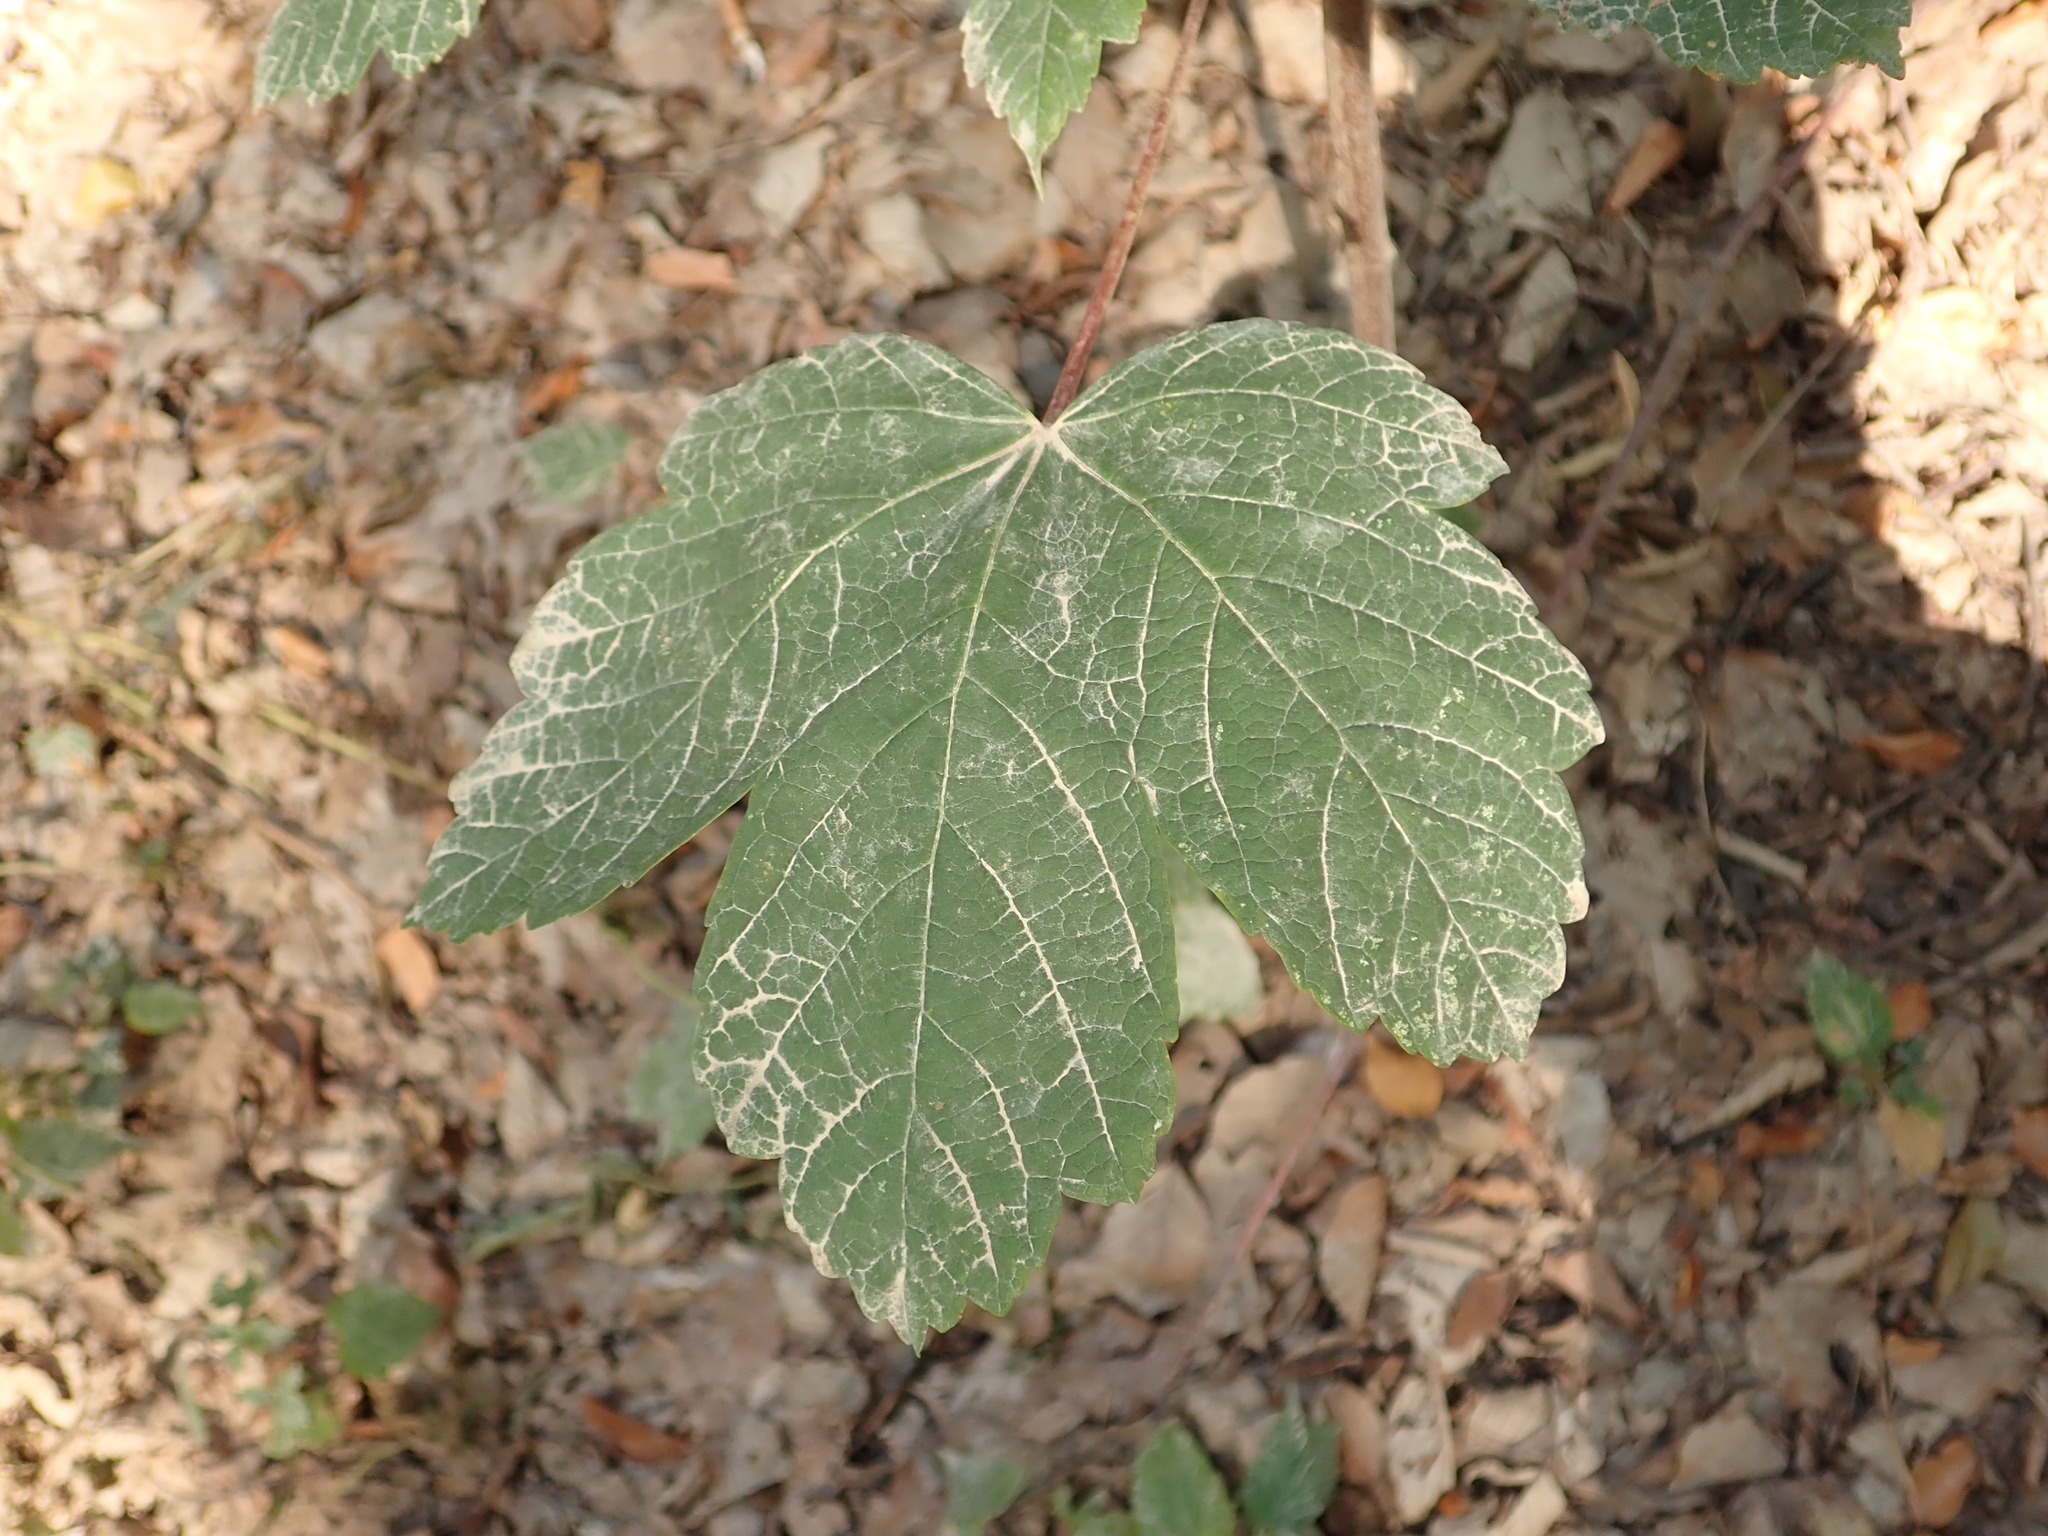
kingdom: Plantae
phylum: Tracheophyta
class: Magnoliopsida
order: Sapindales
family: Sapindaceae
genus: Acer
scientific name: Acer pseudoplatanus
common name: Sycamore
